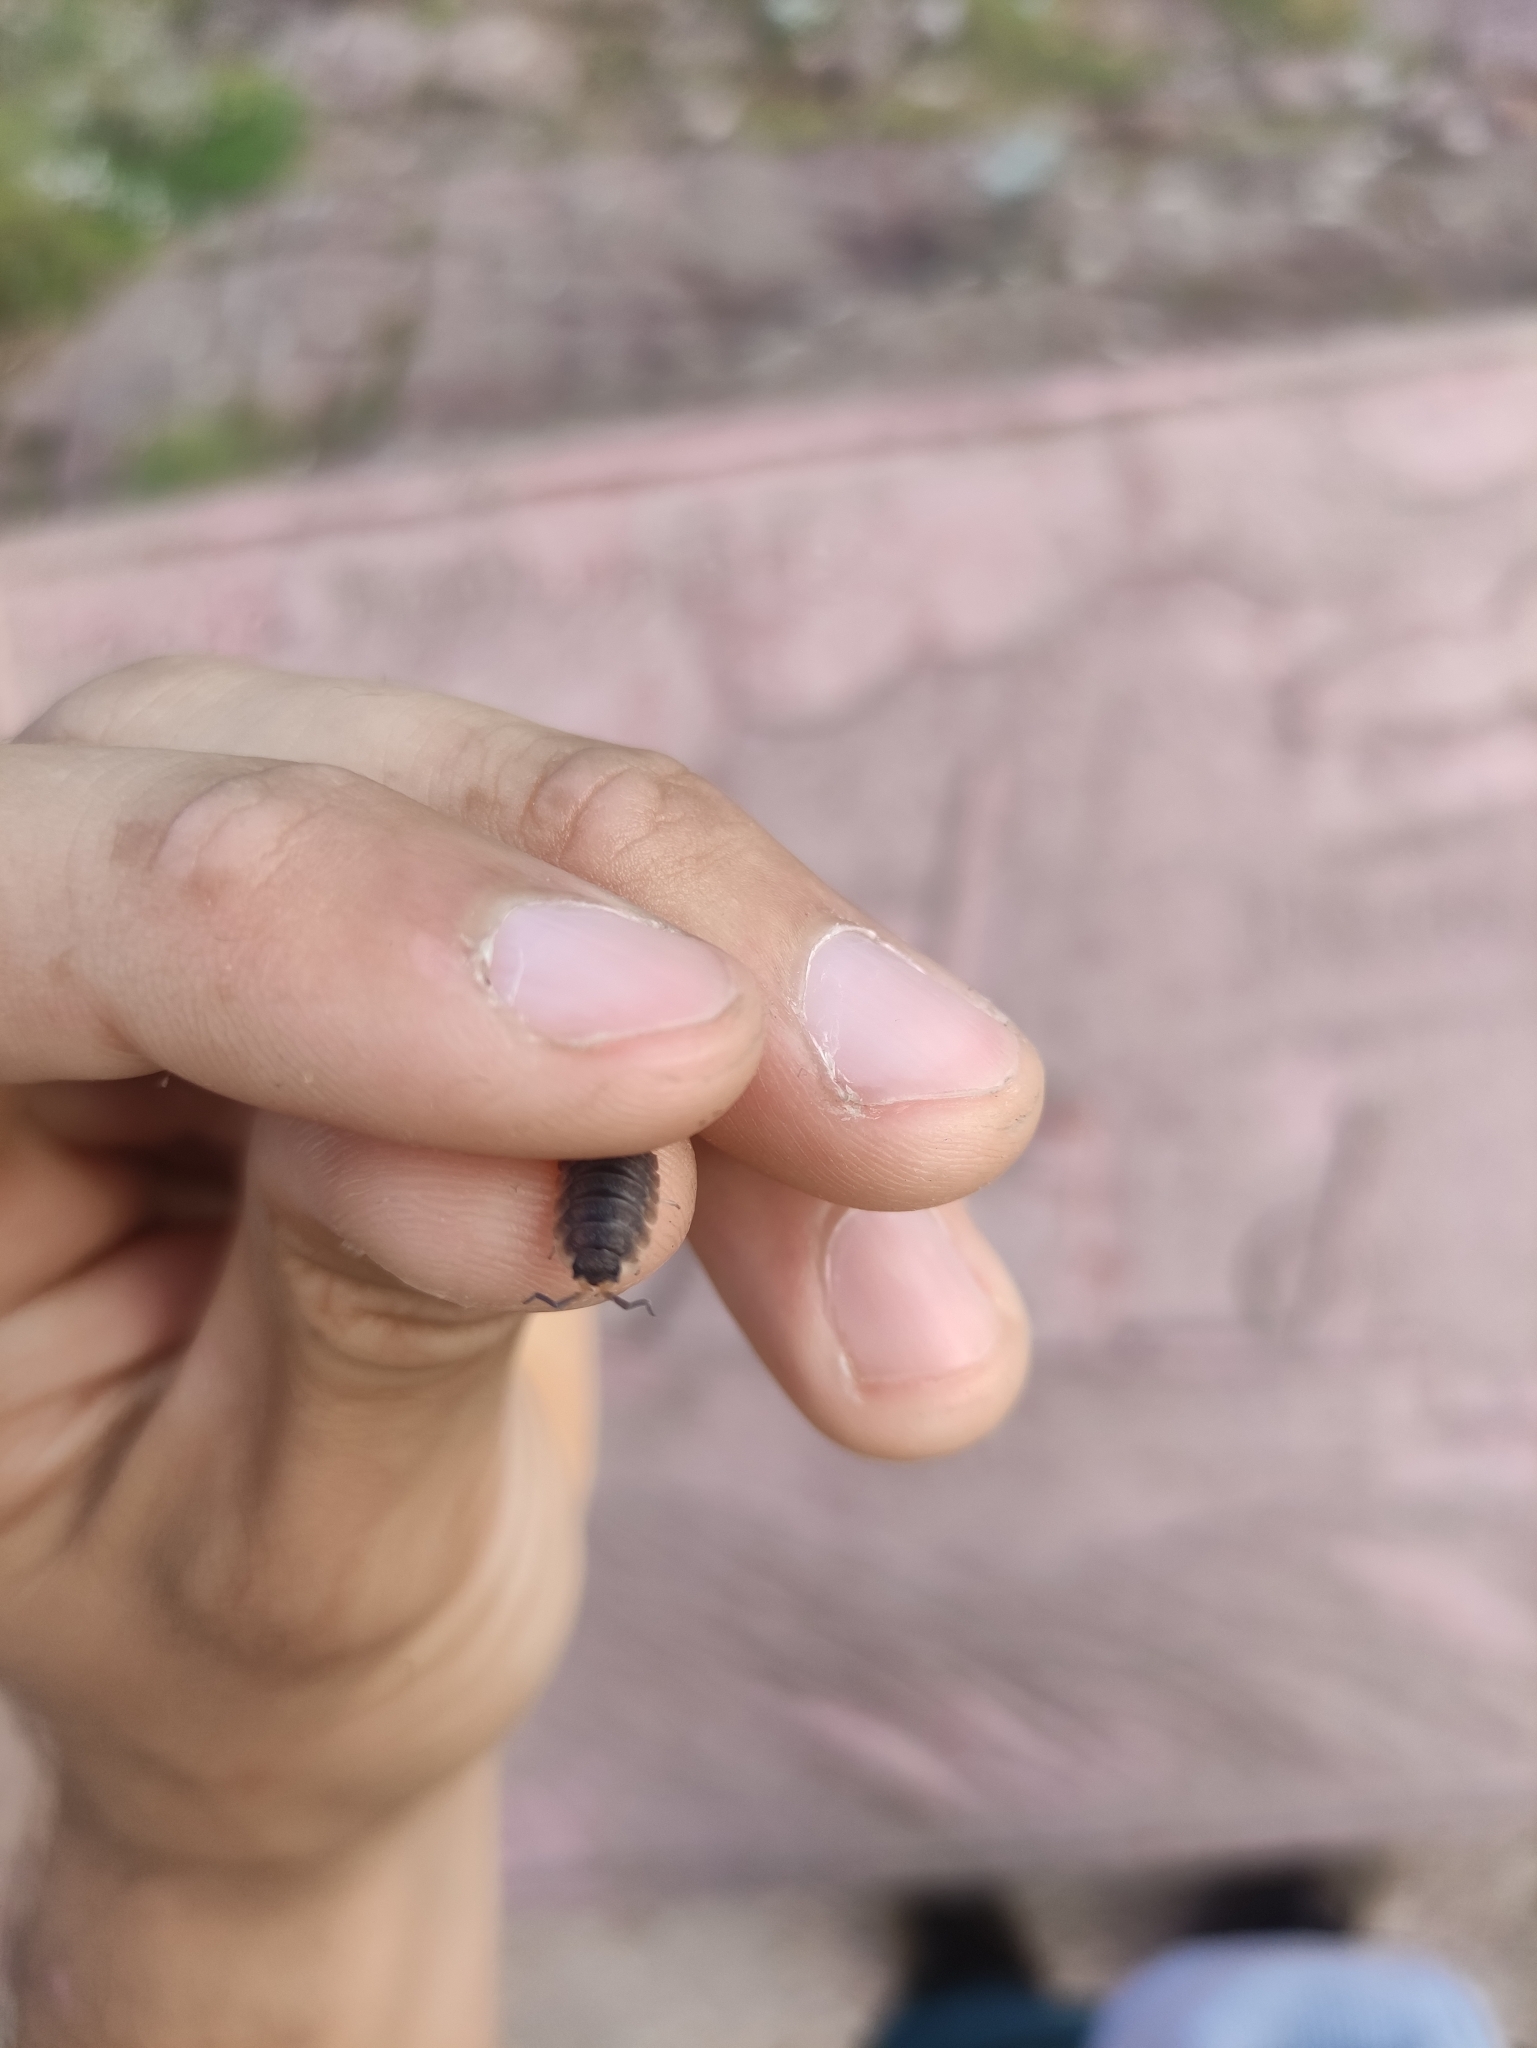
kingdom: Animalia
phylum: Arthropoda
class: Malacostraca
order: Isopoda
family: Porcellionidae
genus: Porcellio
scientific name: Porcellio scaber
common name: Common rough woodlouse
